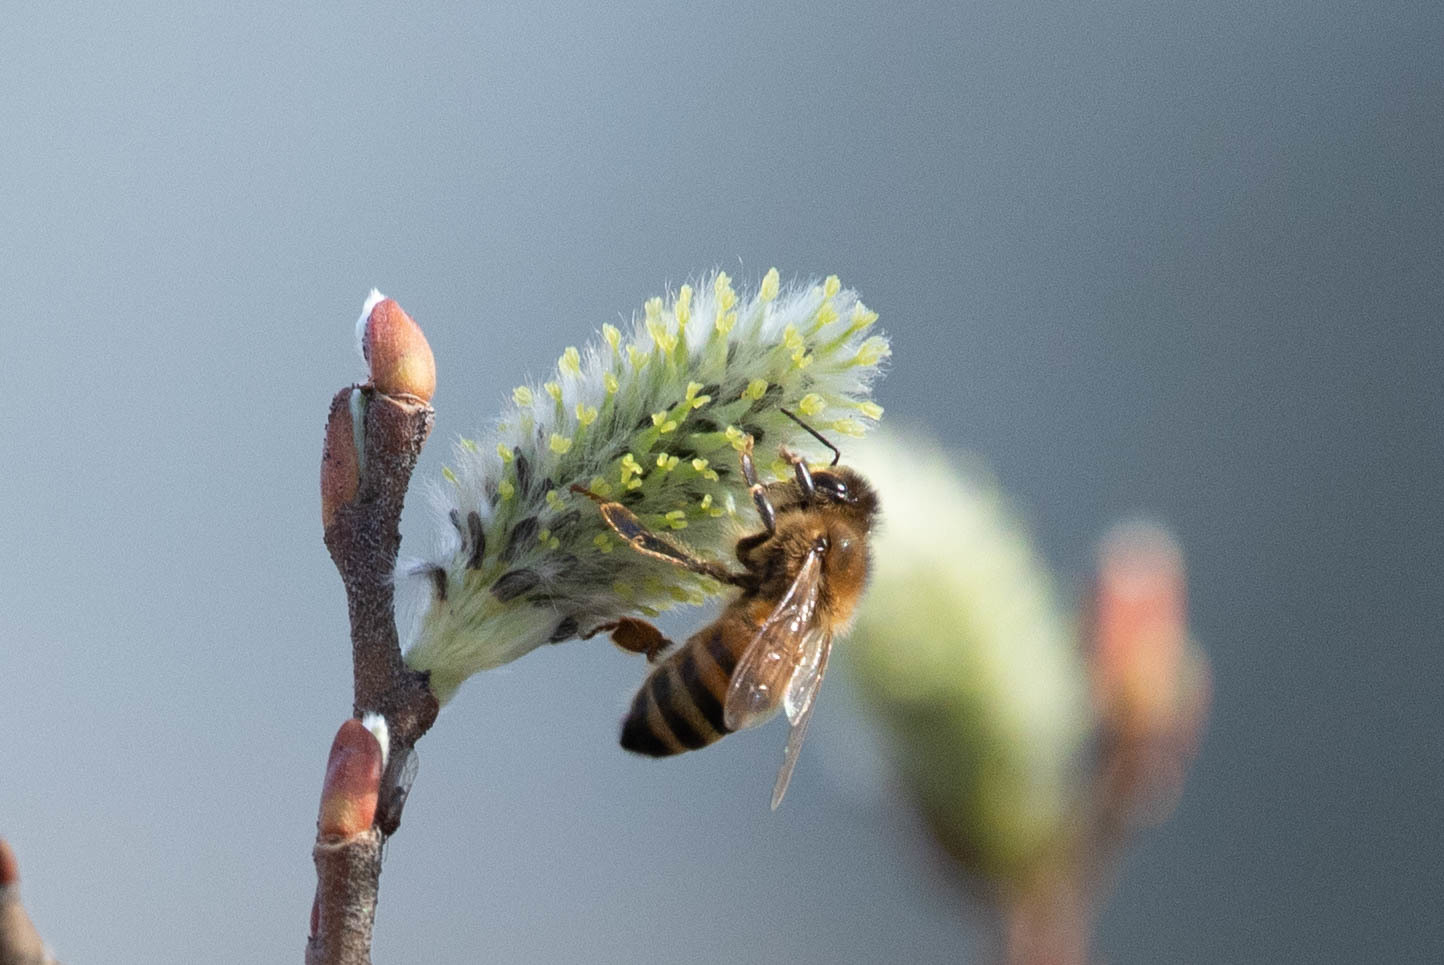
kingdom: Animalia
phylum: Arthropoda
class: Insecta
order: Hymenoptera
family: Apidae
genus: Apis
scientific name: Apis mellifera
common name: Honey bee
